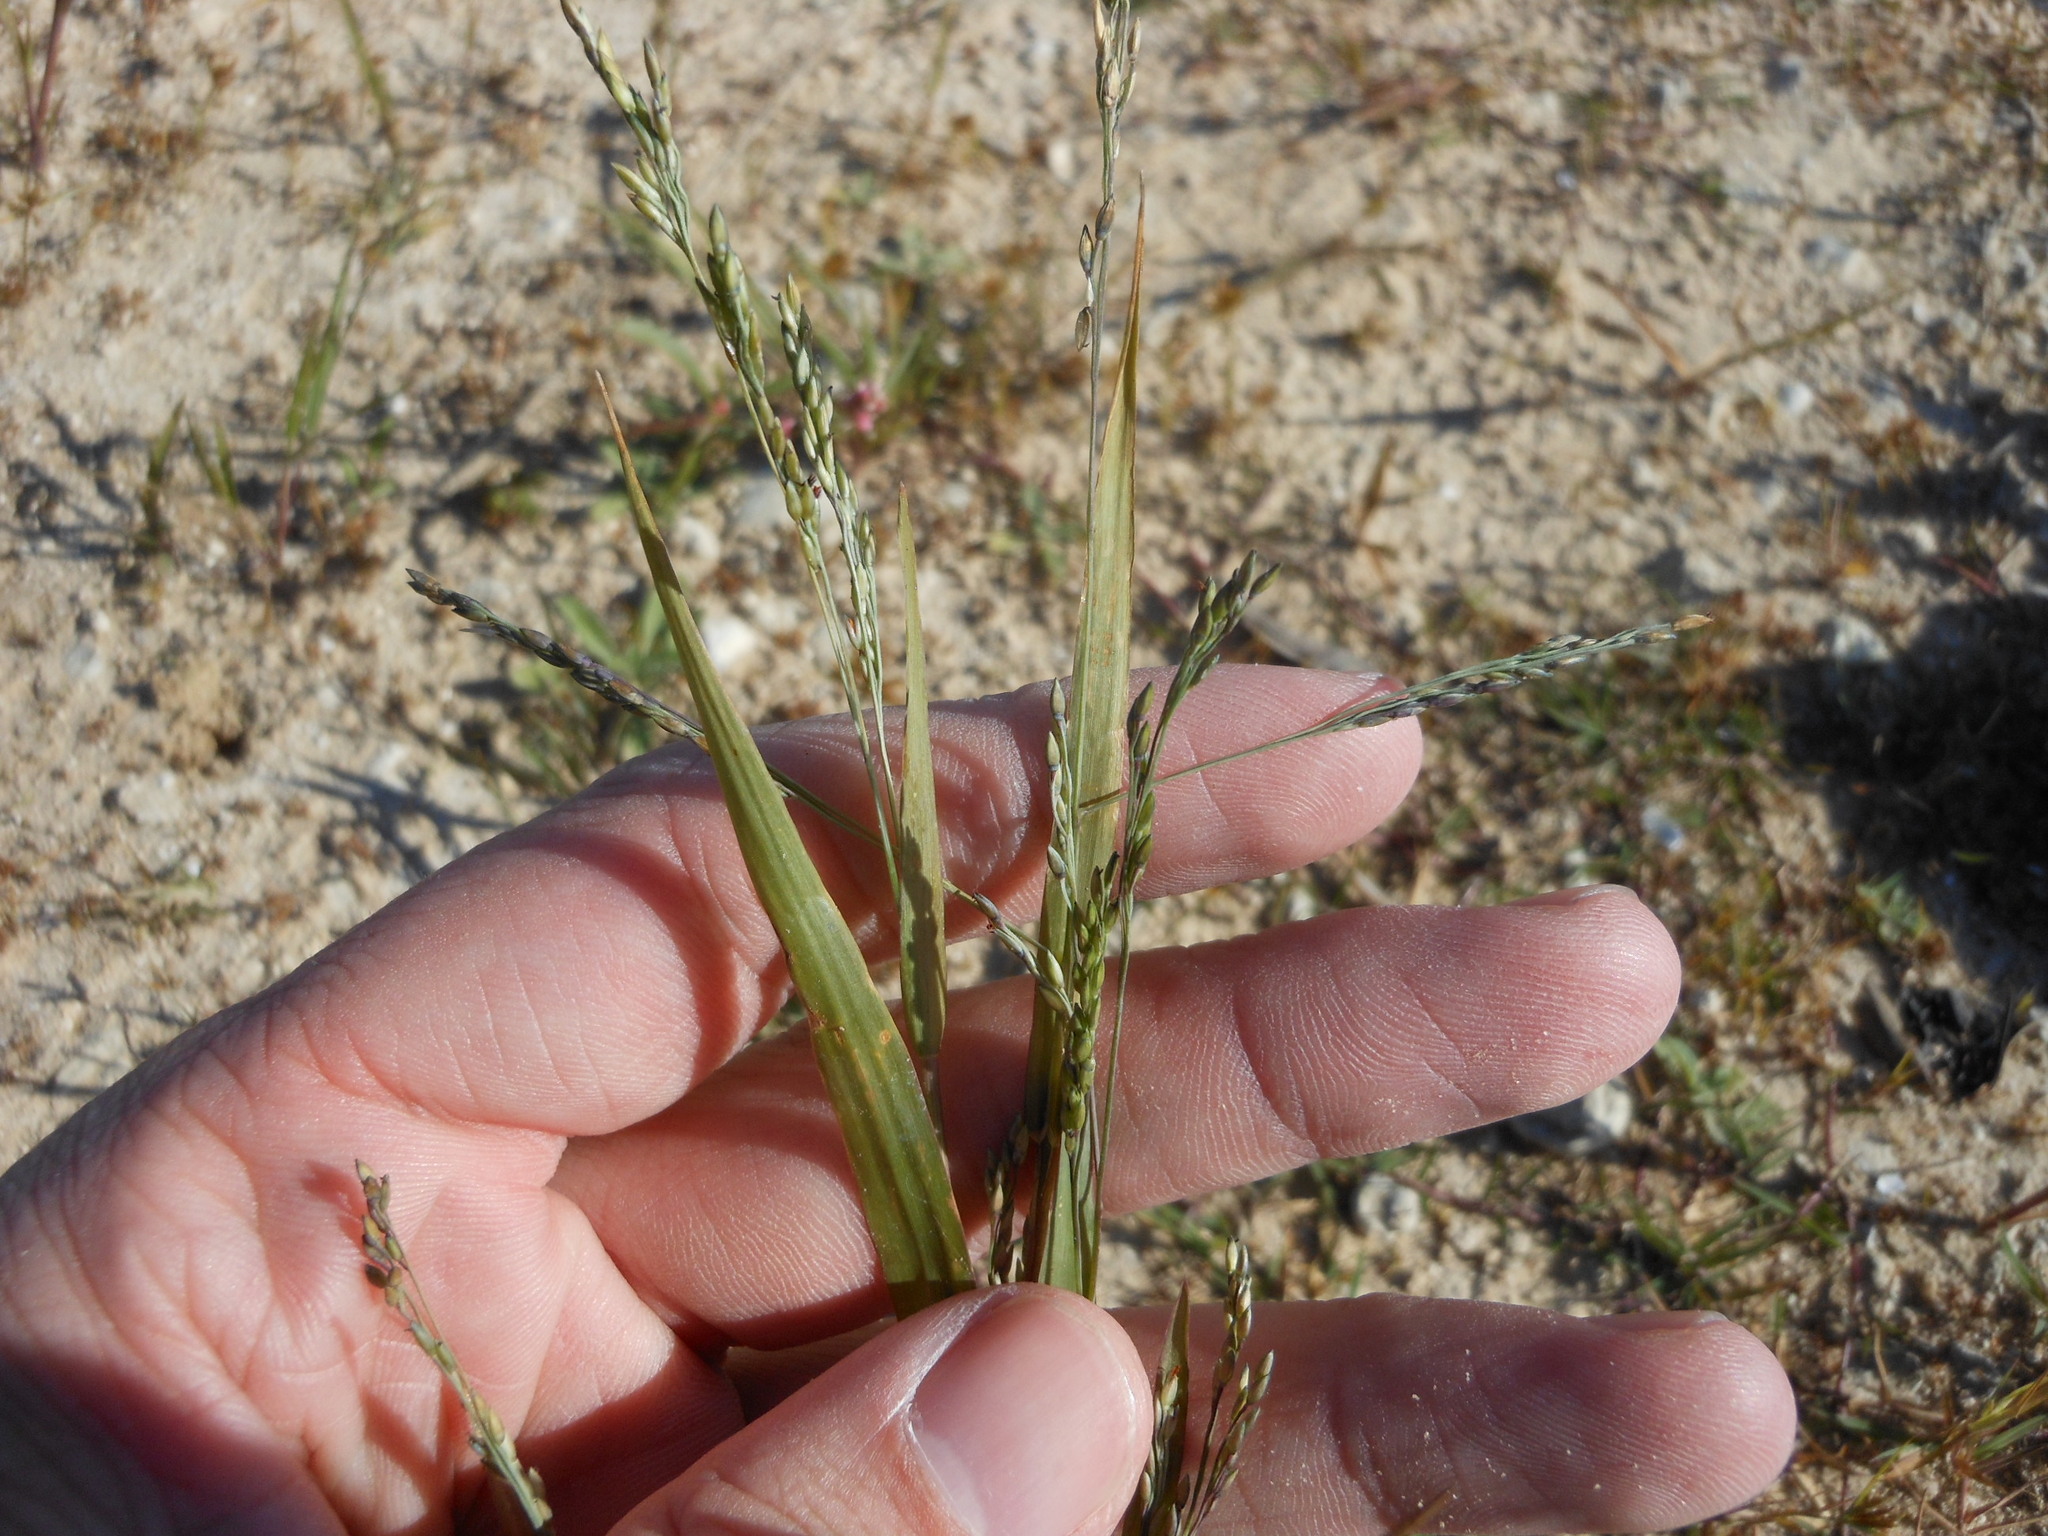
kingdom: Plantae
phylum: Tracheophyta
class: Liliopsida
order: Poales
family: Poaceae
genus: Panicum
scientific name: Panicum dichotomiflorum
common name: Autumn millet
